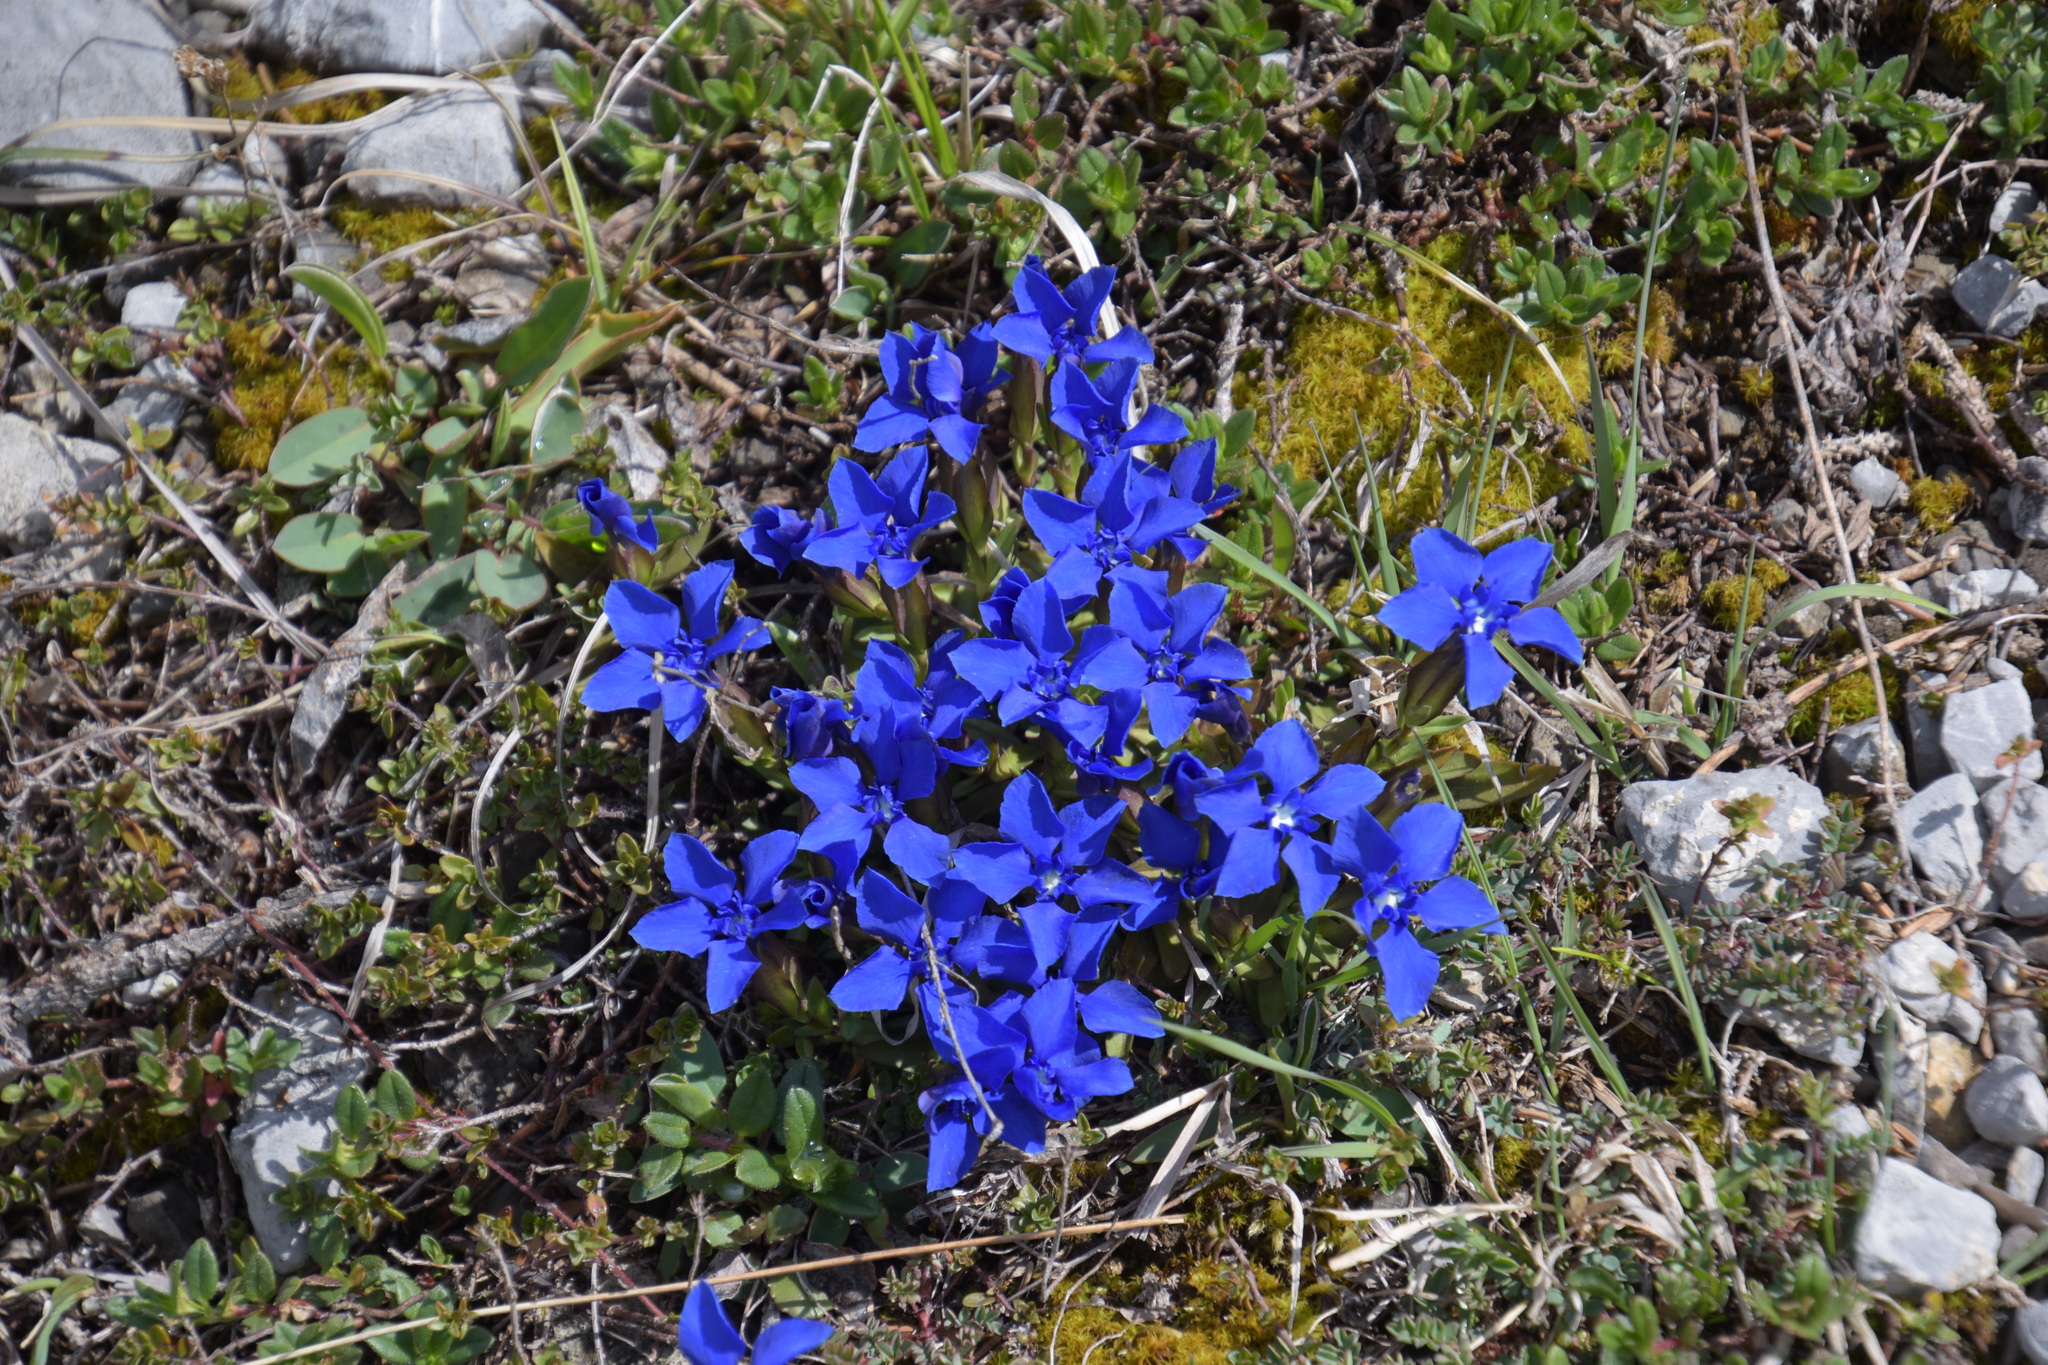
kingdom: Plantae
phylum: Tracheophyta
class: Magnoliopsida
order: Gentianales
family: Gentianaceae
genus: Gentiana
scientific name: Gentiana verna
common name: Spring gentian
